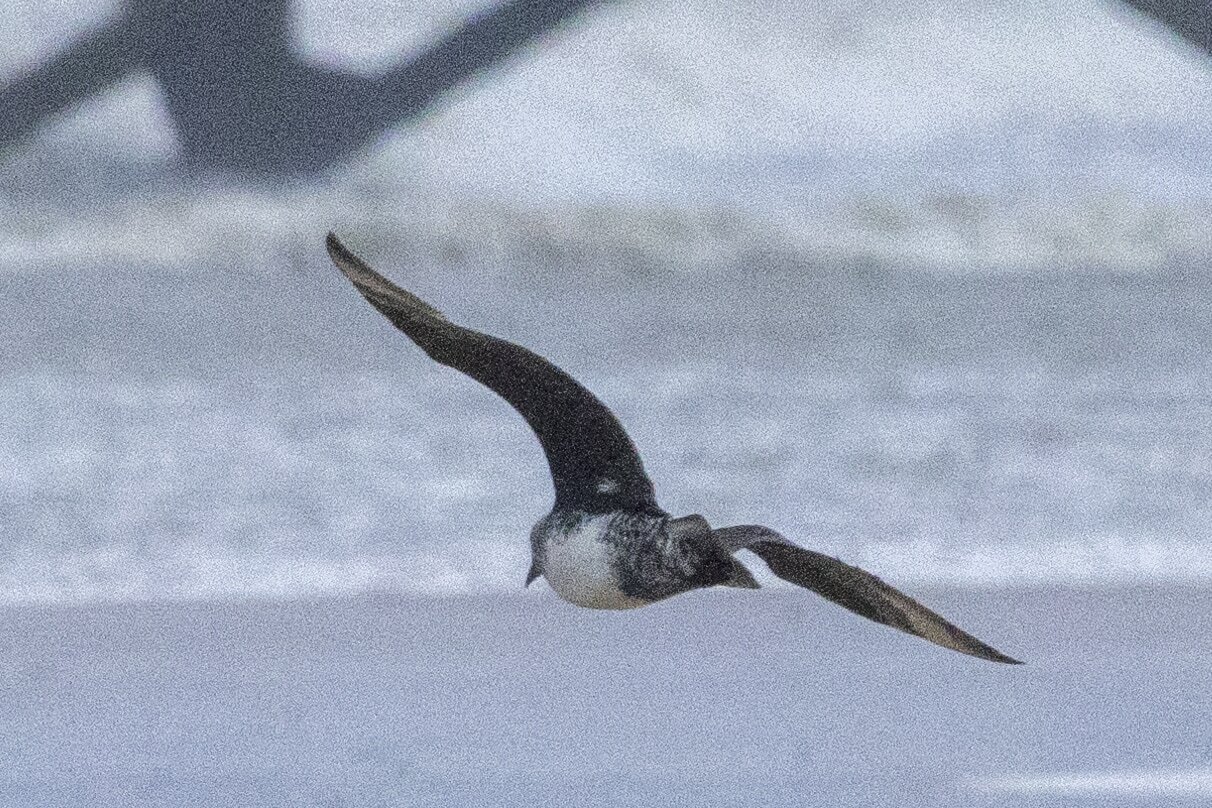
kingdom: Animalia
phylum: Chordata
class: Aves
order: Charadriiformes
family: Stercorariidae
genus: Stercorarius
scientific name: Stercorarius pomarinus
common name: Pomarine jaeger
